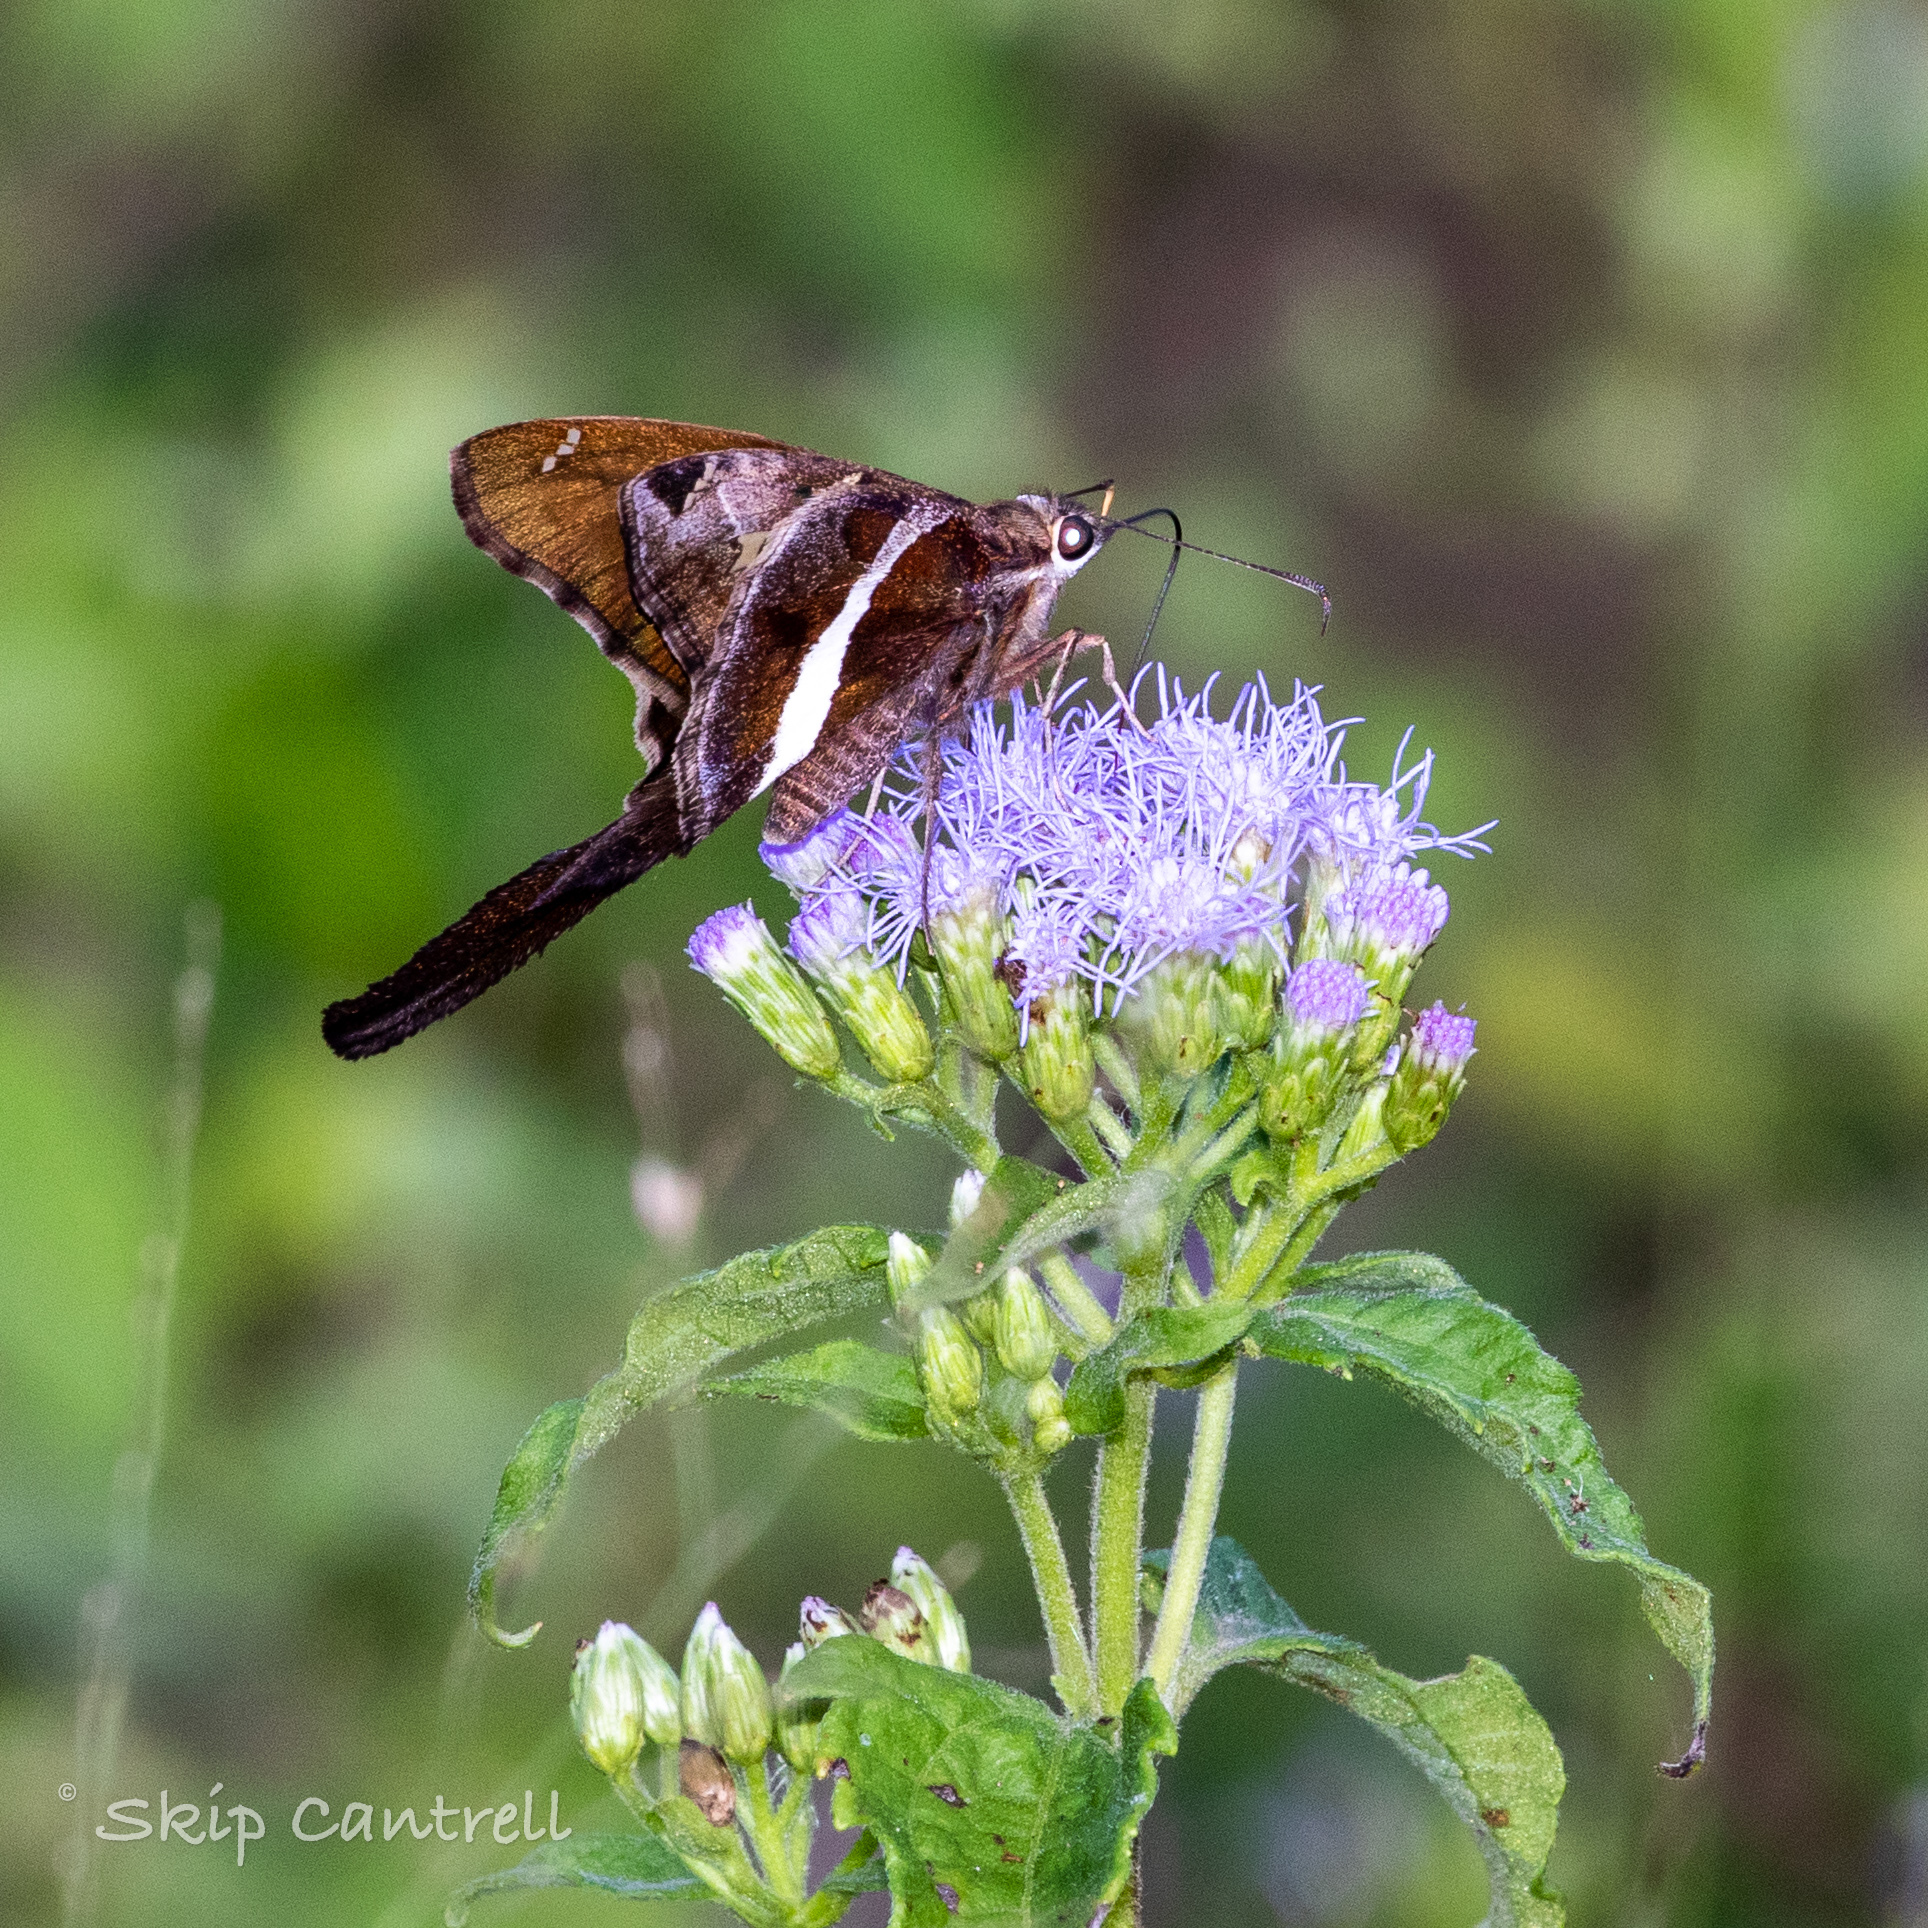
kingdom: Animalia
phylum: Arthropoda
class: Insecta
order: Lepidoptera
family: Hesperiidae
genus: Chioides
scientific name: Chioides catillus
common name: Silverbanded skipper
